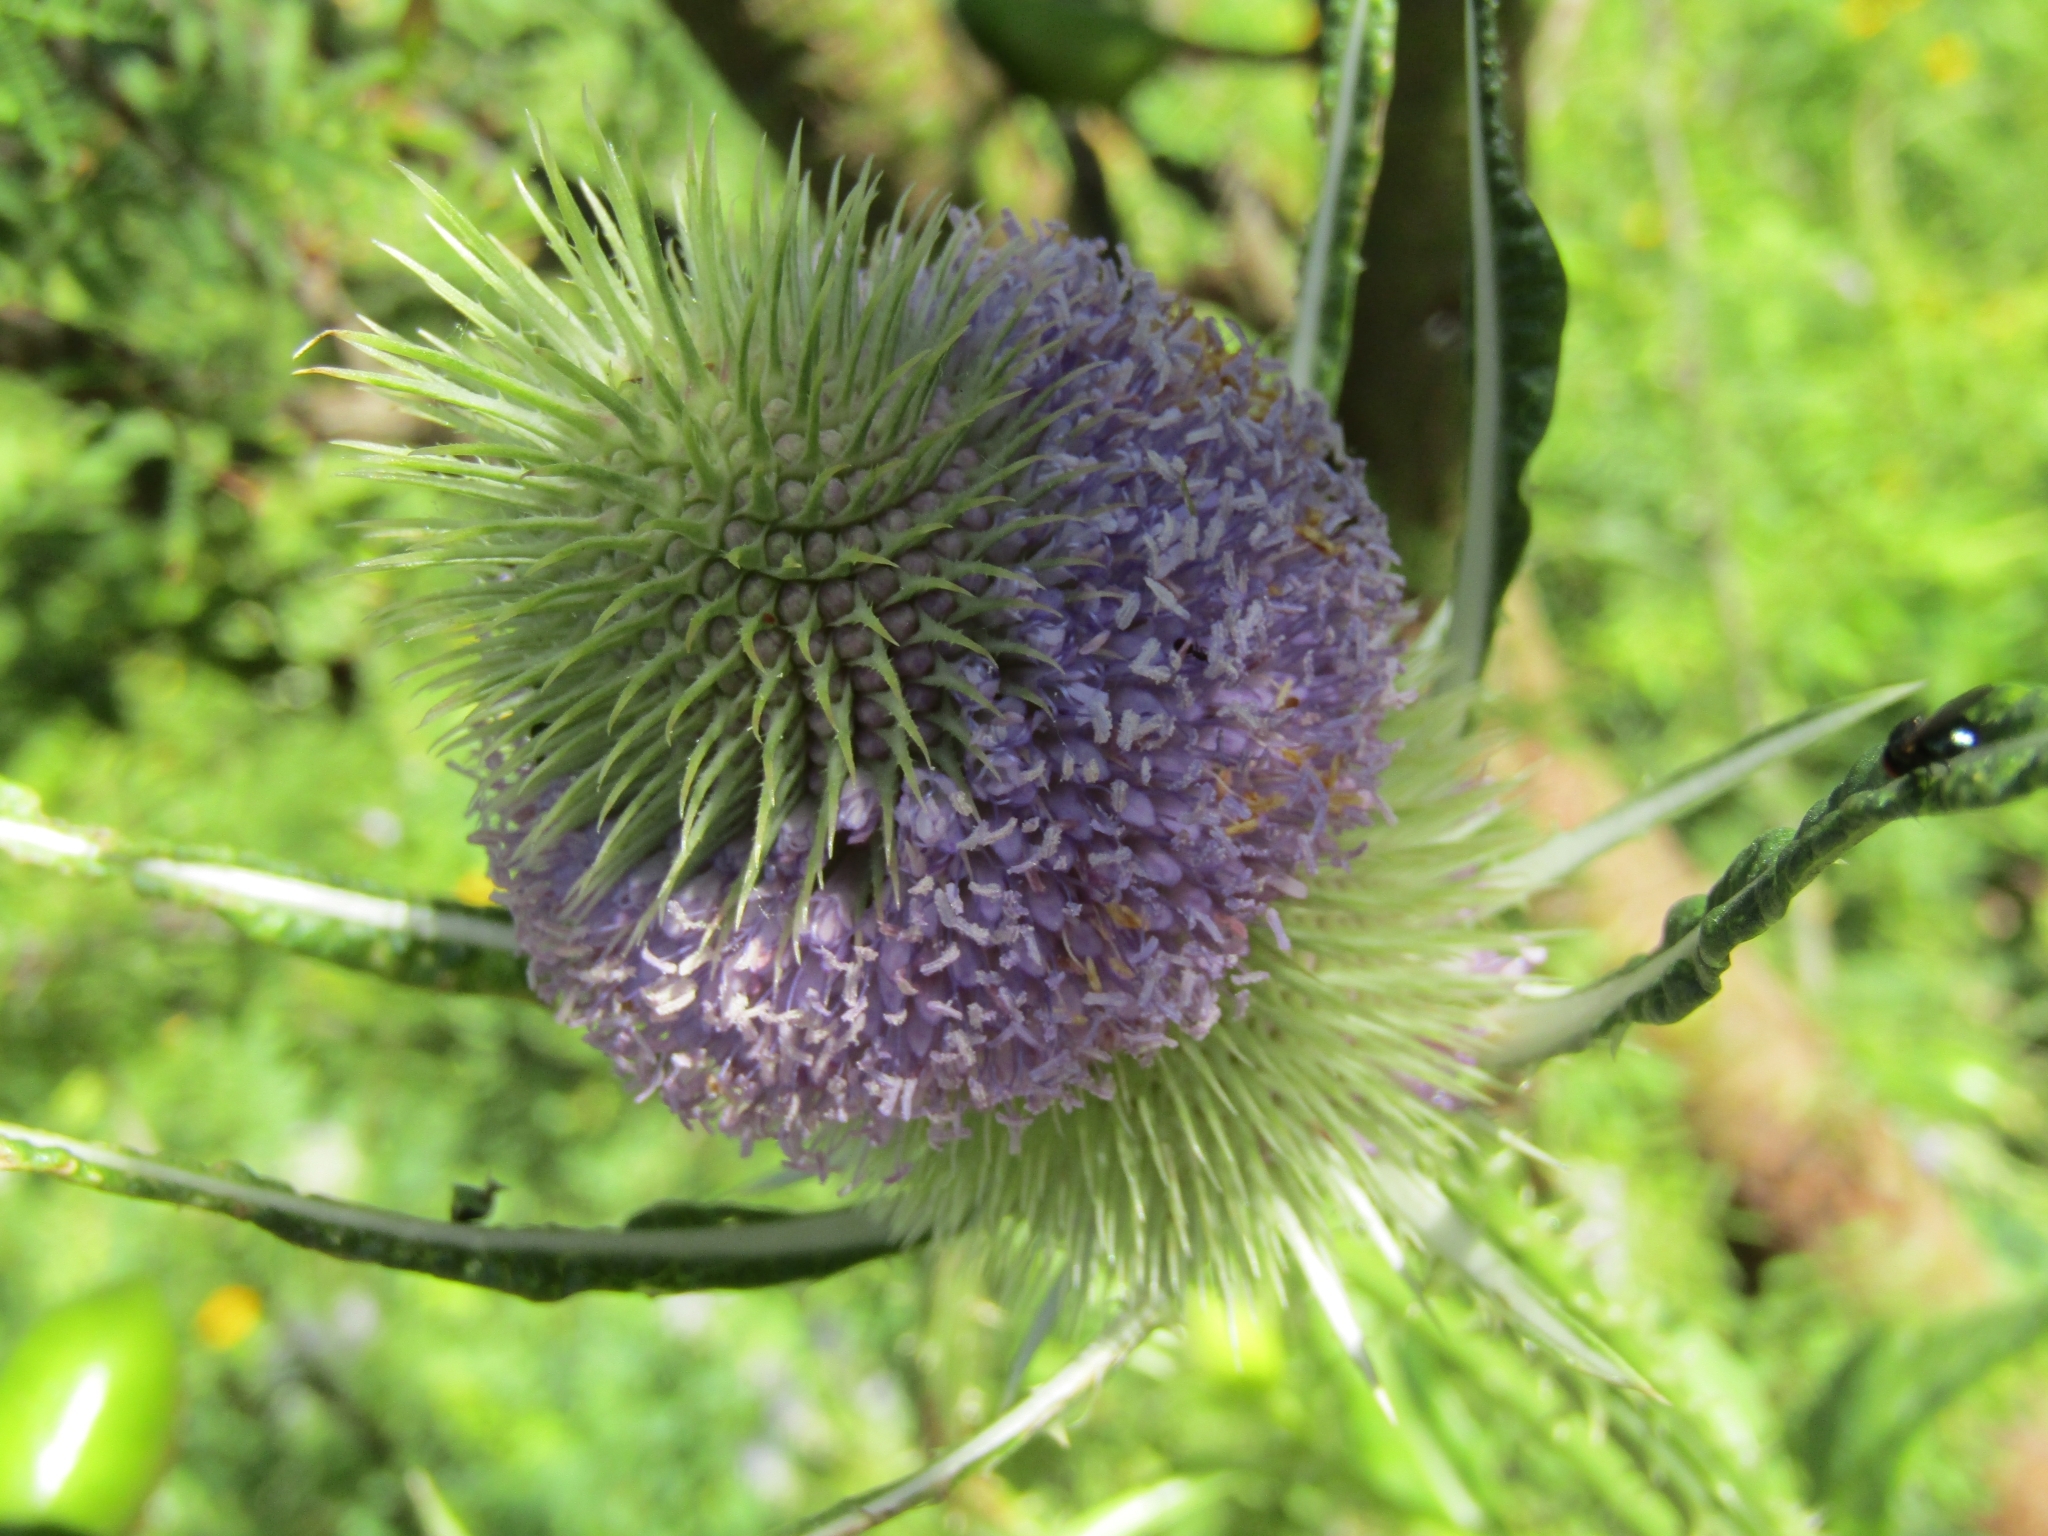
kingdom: Plantae
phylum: Tracheophyta
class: Magnoliopsida
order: Dipsacales
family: Caprifoliaceae
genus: Dipsacus
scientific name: Dipsacus fullonum
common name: Teasel
